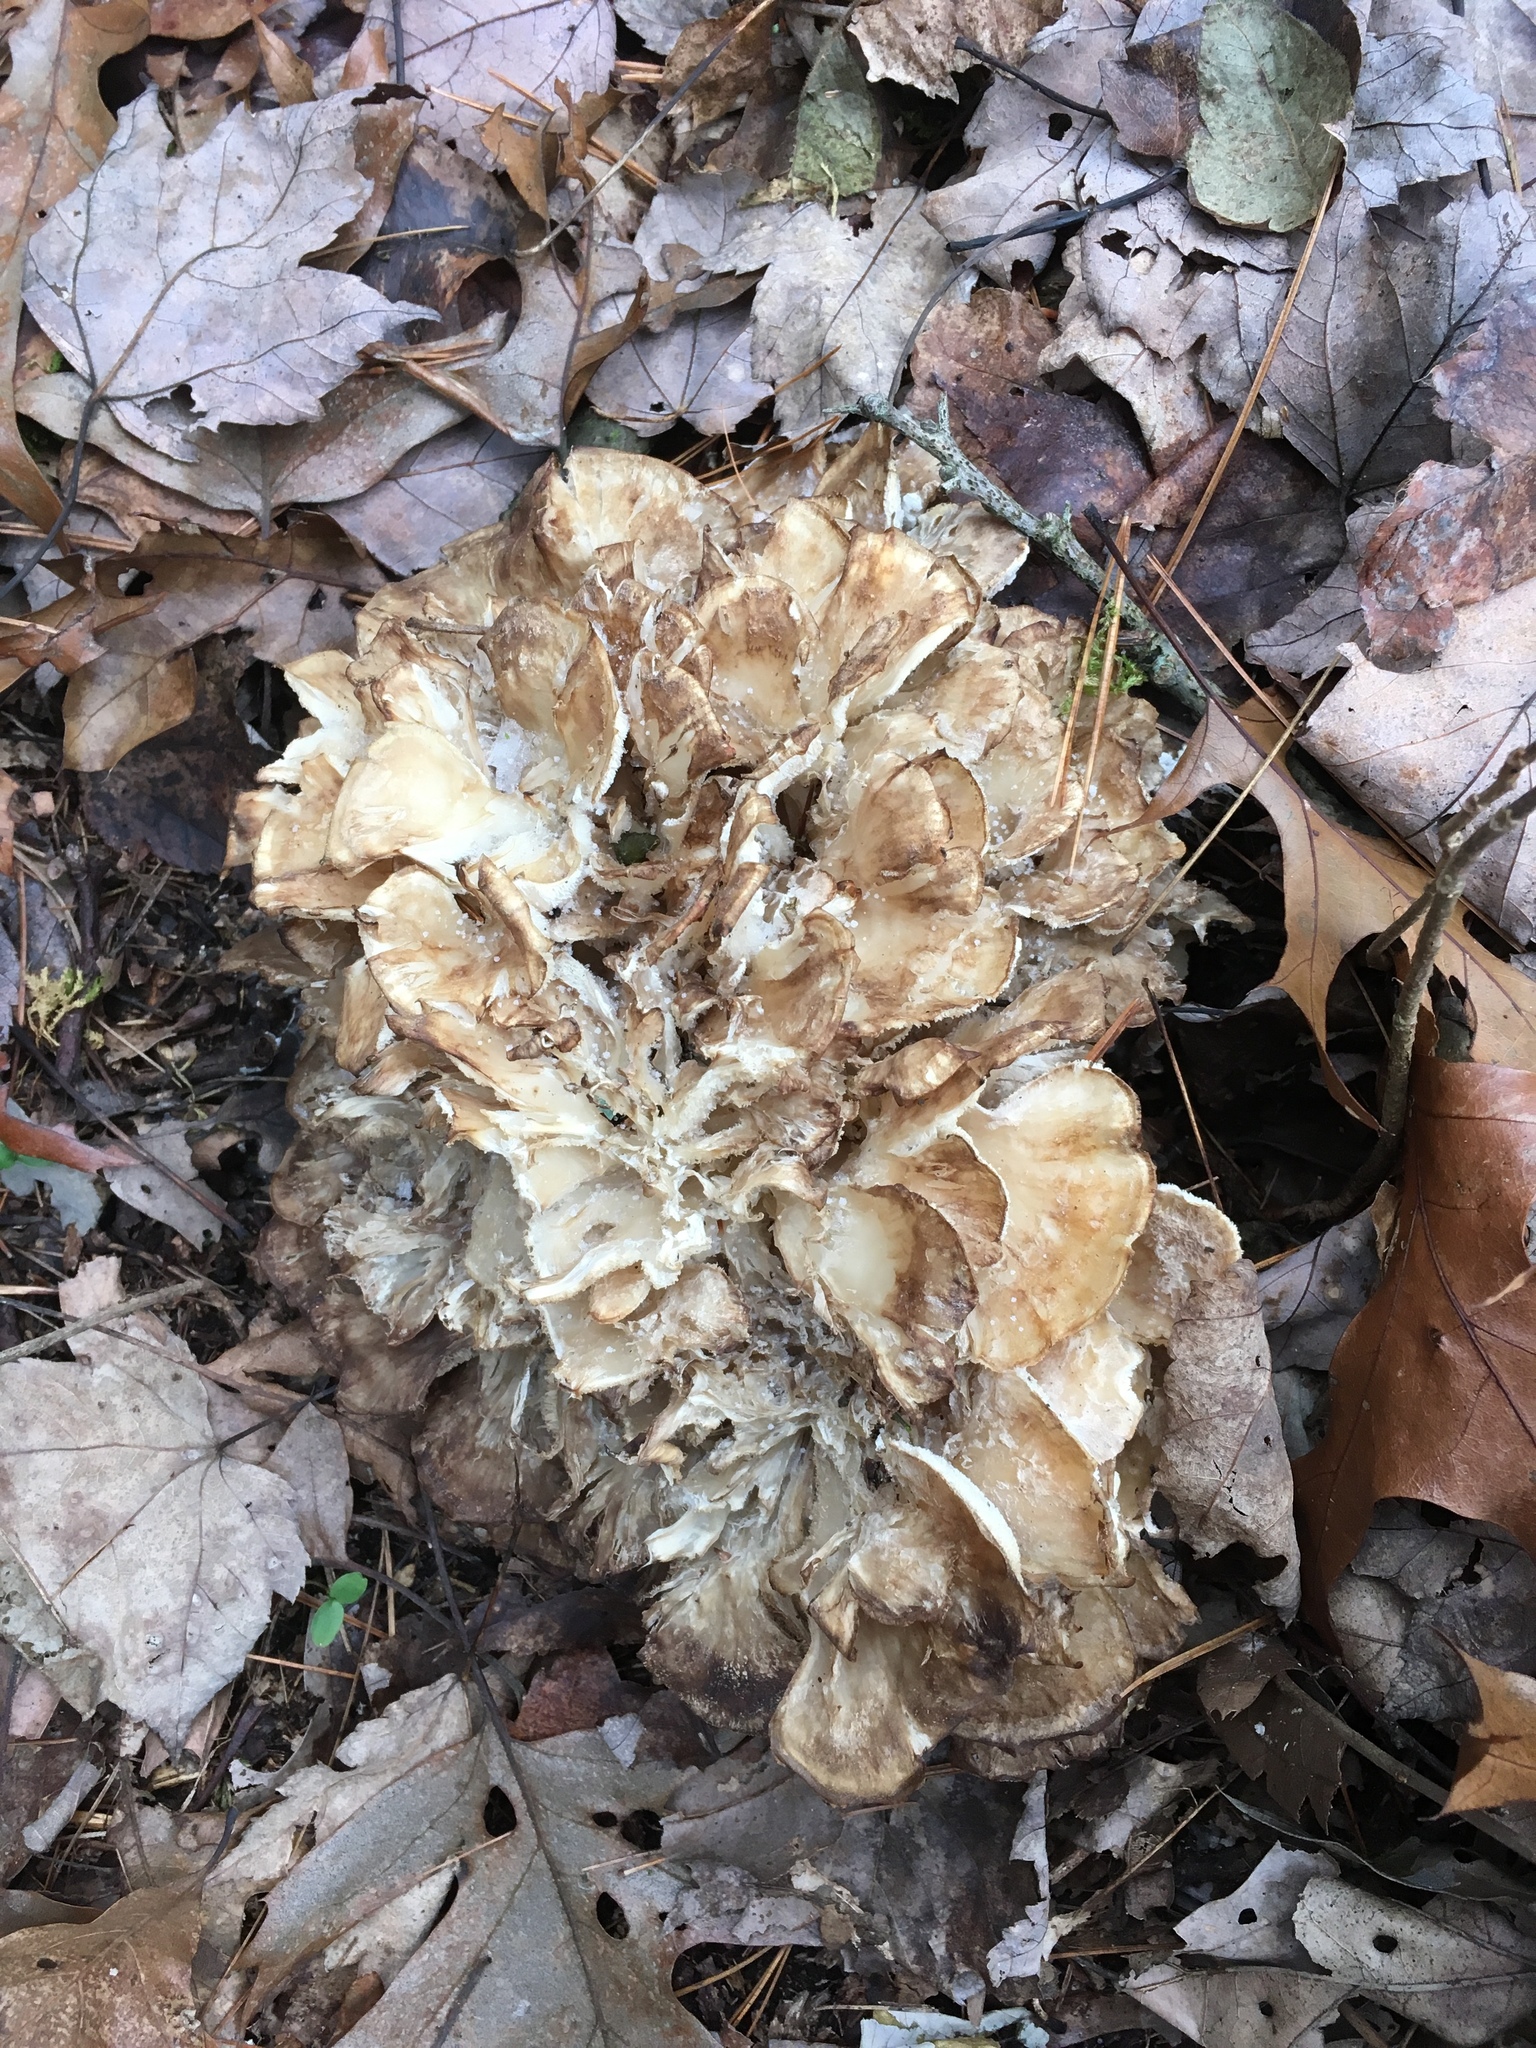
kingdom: Fungi
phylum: Basidiomycota
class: Agaricomycetes
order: Polyporales
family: Grifolaceae
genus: Grifola
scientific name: Grifola frondosa
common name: Hen of the woods
